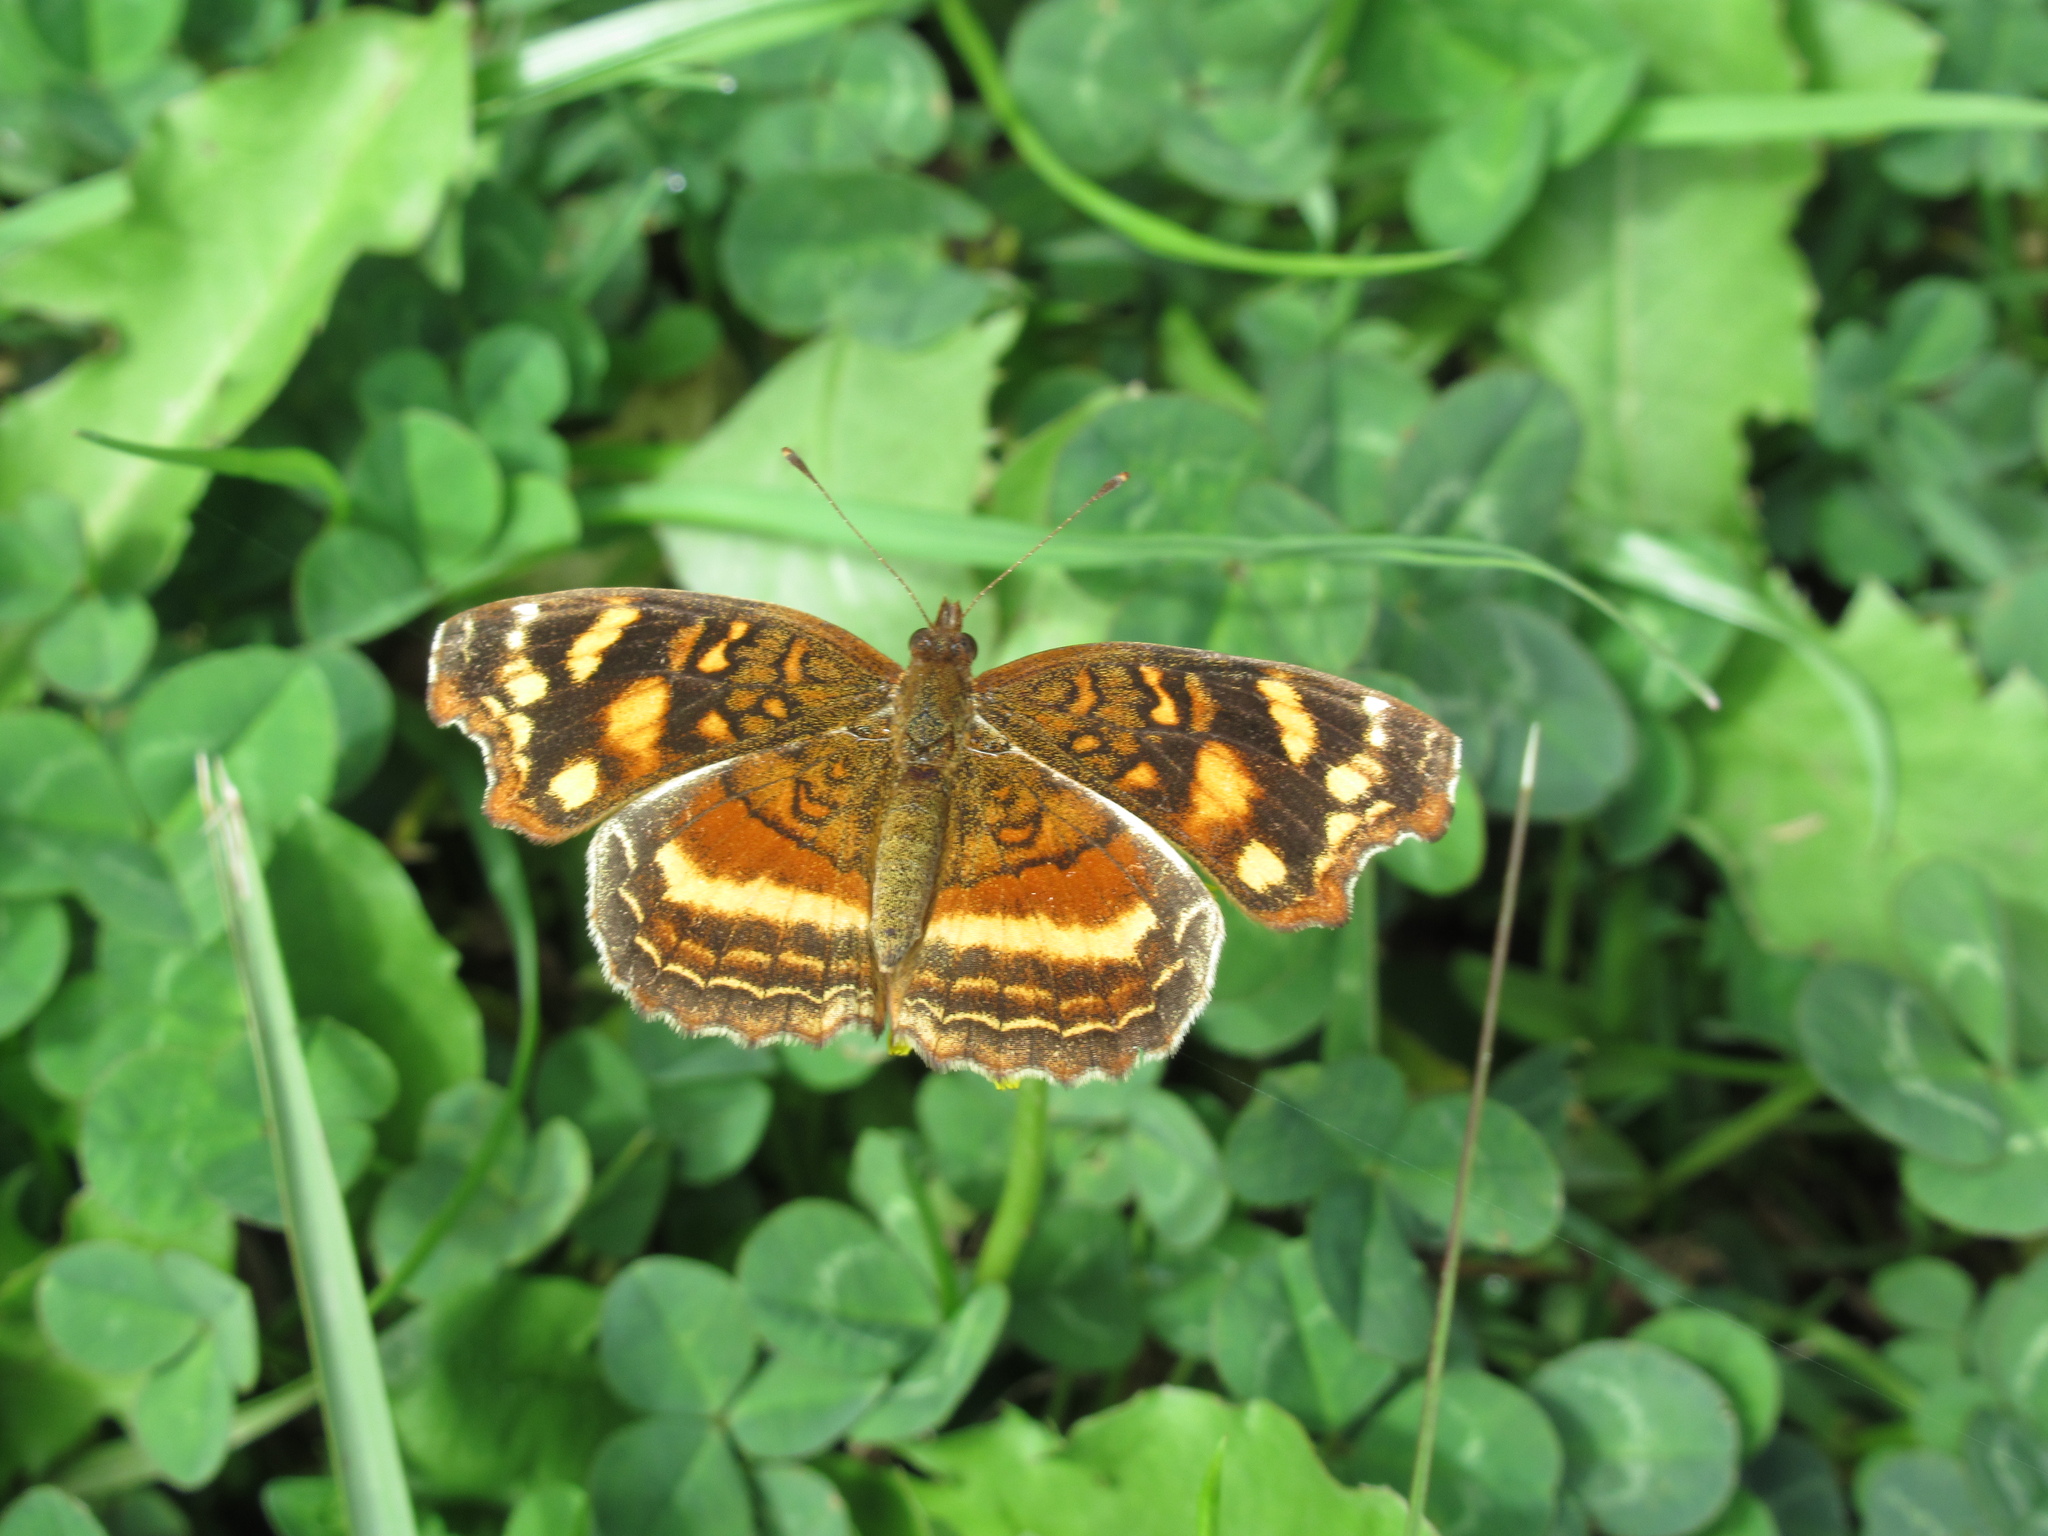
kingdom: Animalia
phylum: Arthropoda
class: Insecta
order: Lepidoptera
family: Nymphalidae
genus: Anthanassa
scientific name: Anthanassa drusilla
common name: Orange-patched crescent
